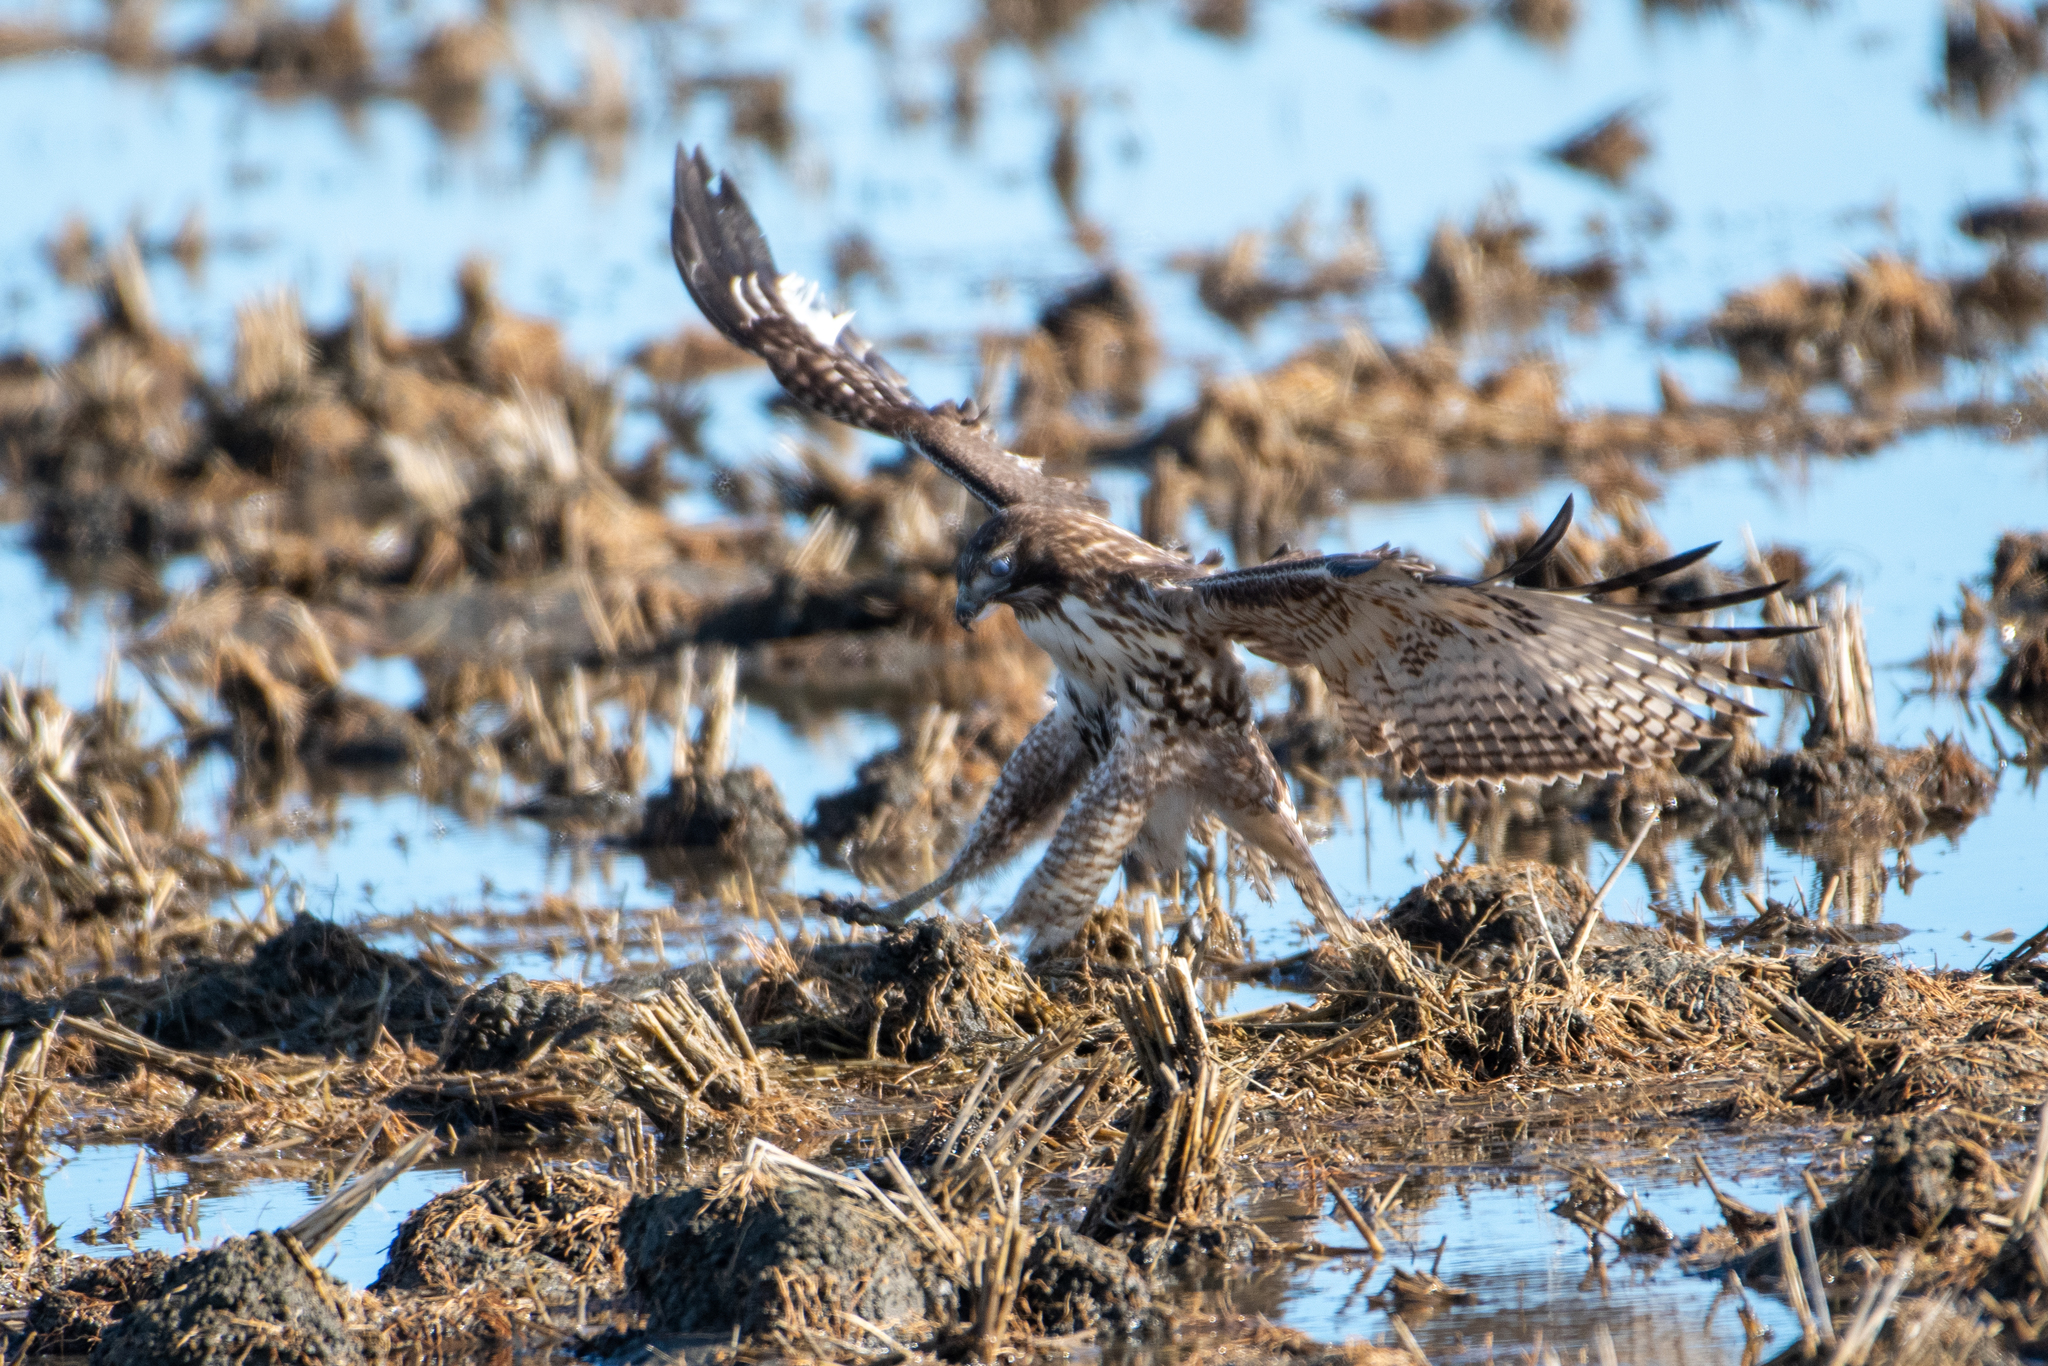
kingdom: Animalia
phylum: Chordata
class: Aves
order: Accipitriformes
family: Accipitridae
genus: Buteo
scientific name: Buteo jamaicensis
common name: Red-tailed hawk
